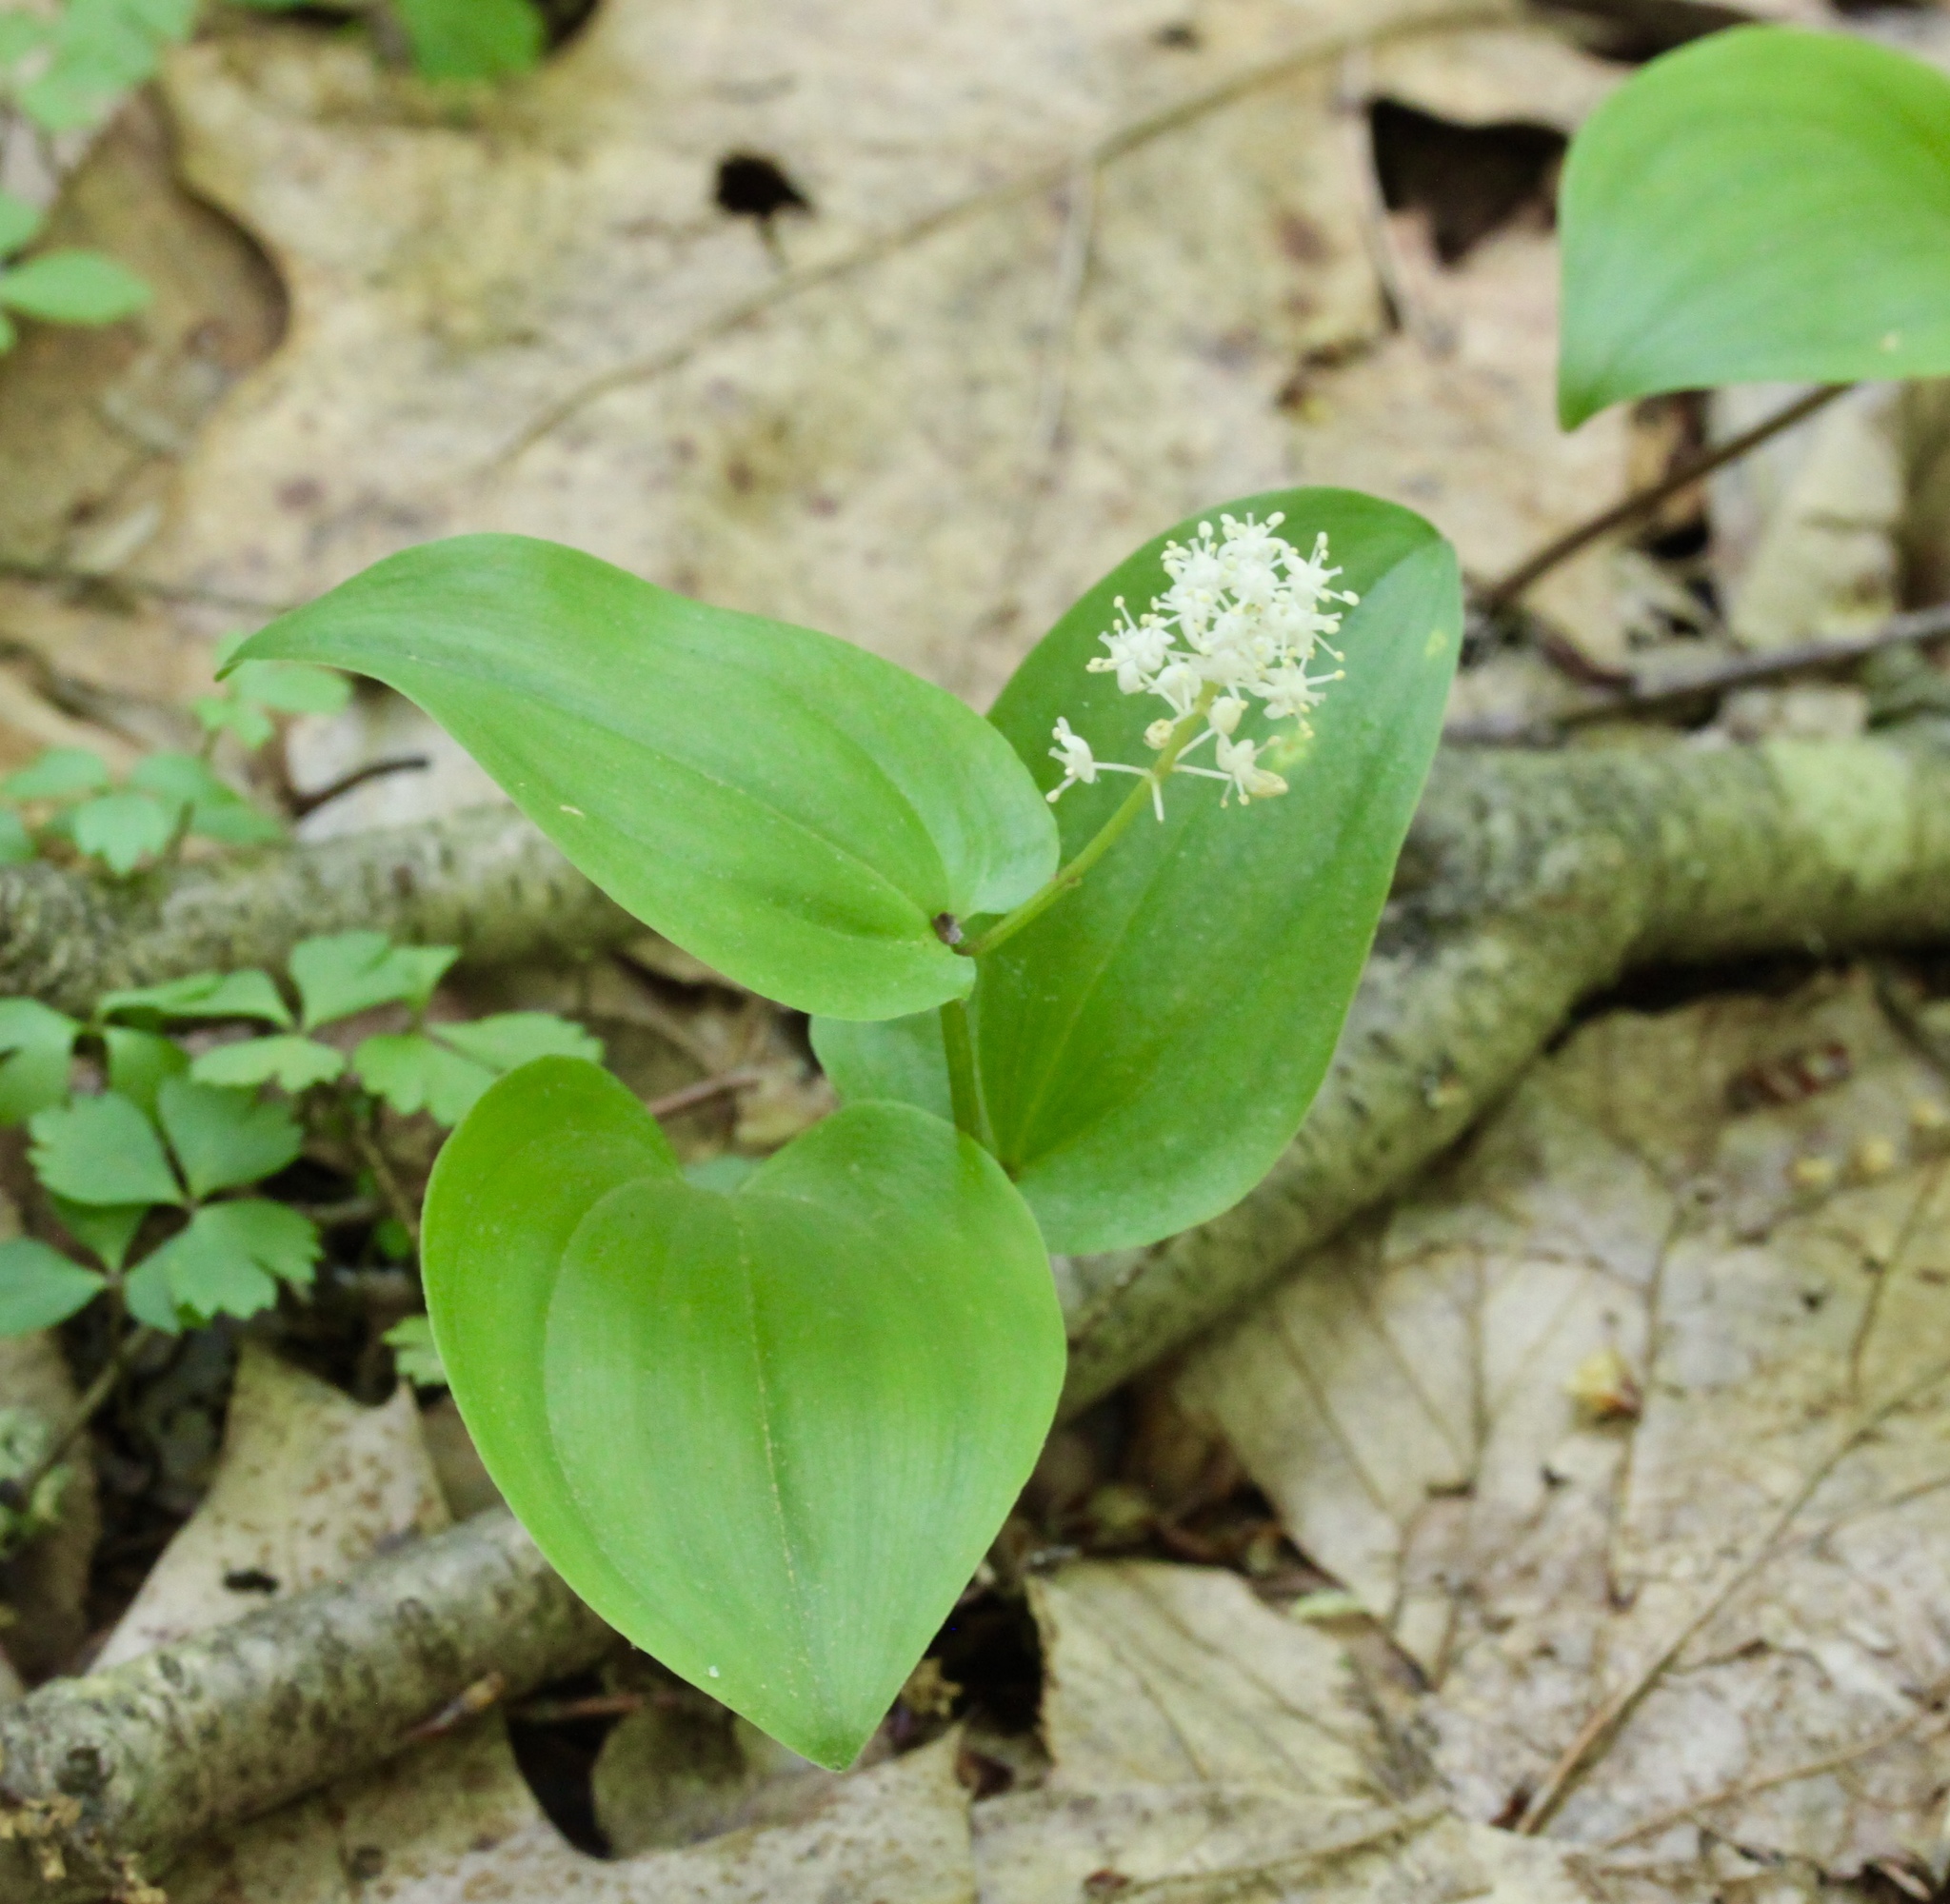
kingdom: Plantae
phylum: Tracheophyta
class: Liliopsida
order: Asparagales
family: Asparagaceae
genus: Maianthemum
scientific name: Maianthemum canadense
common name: False lily-of-the-valley
